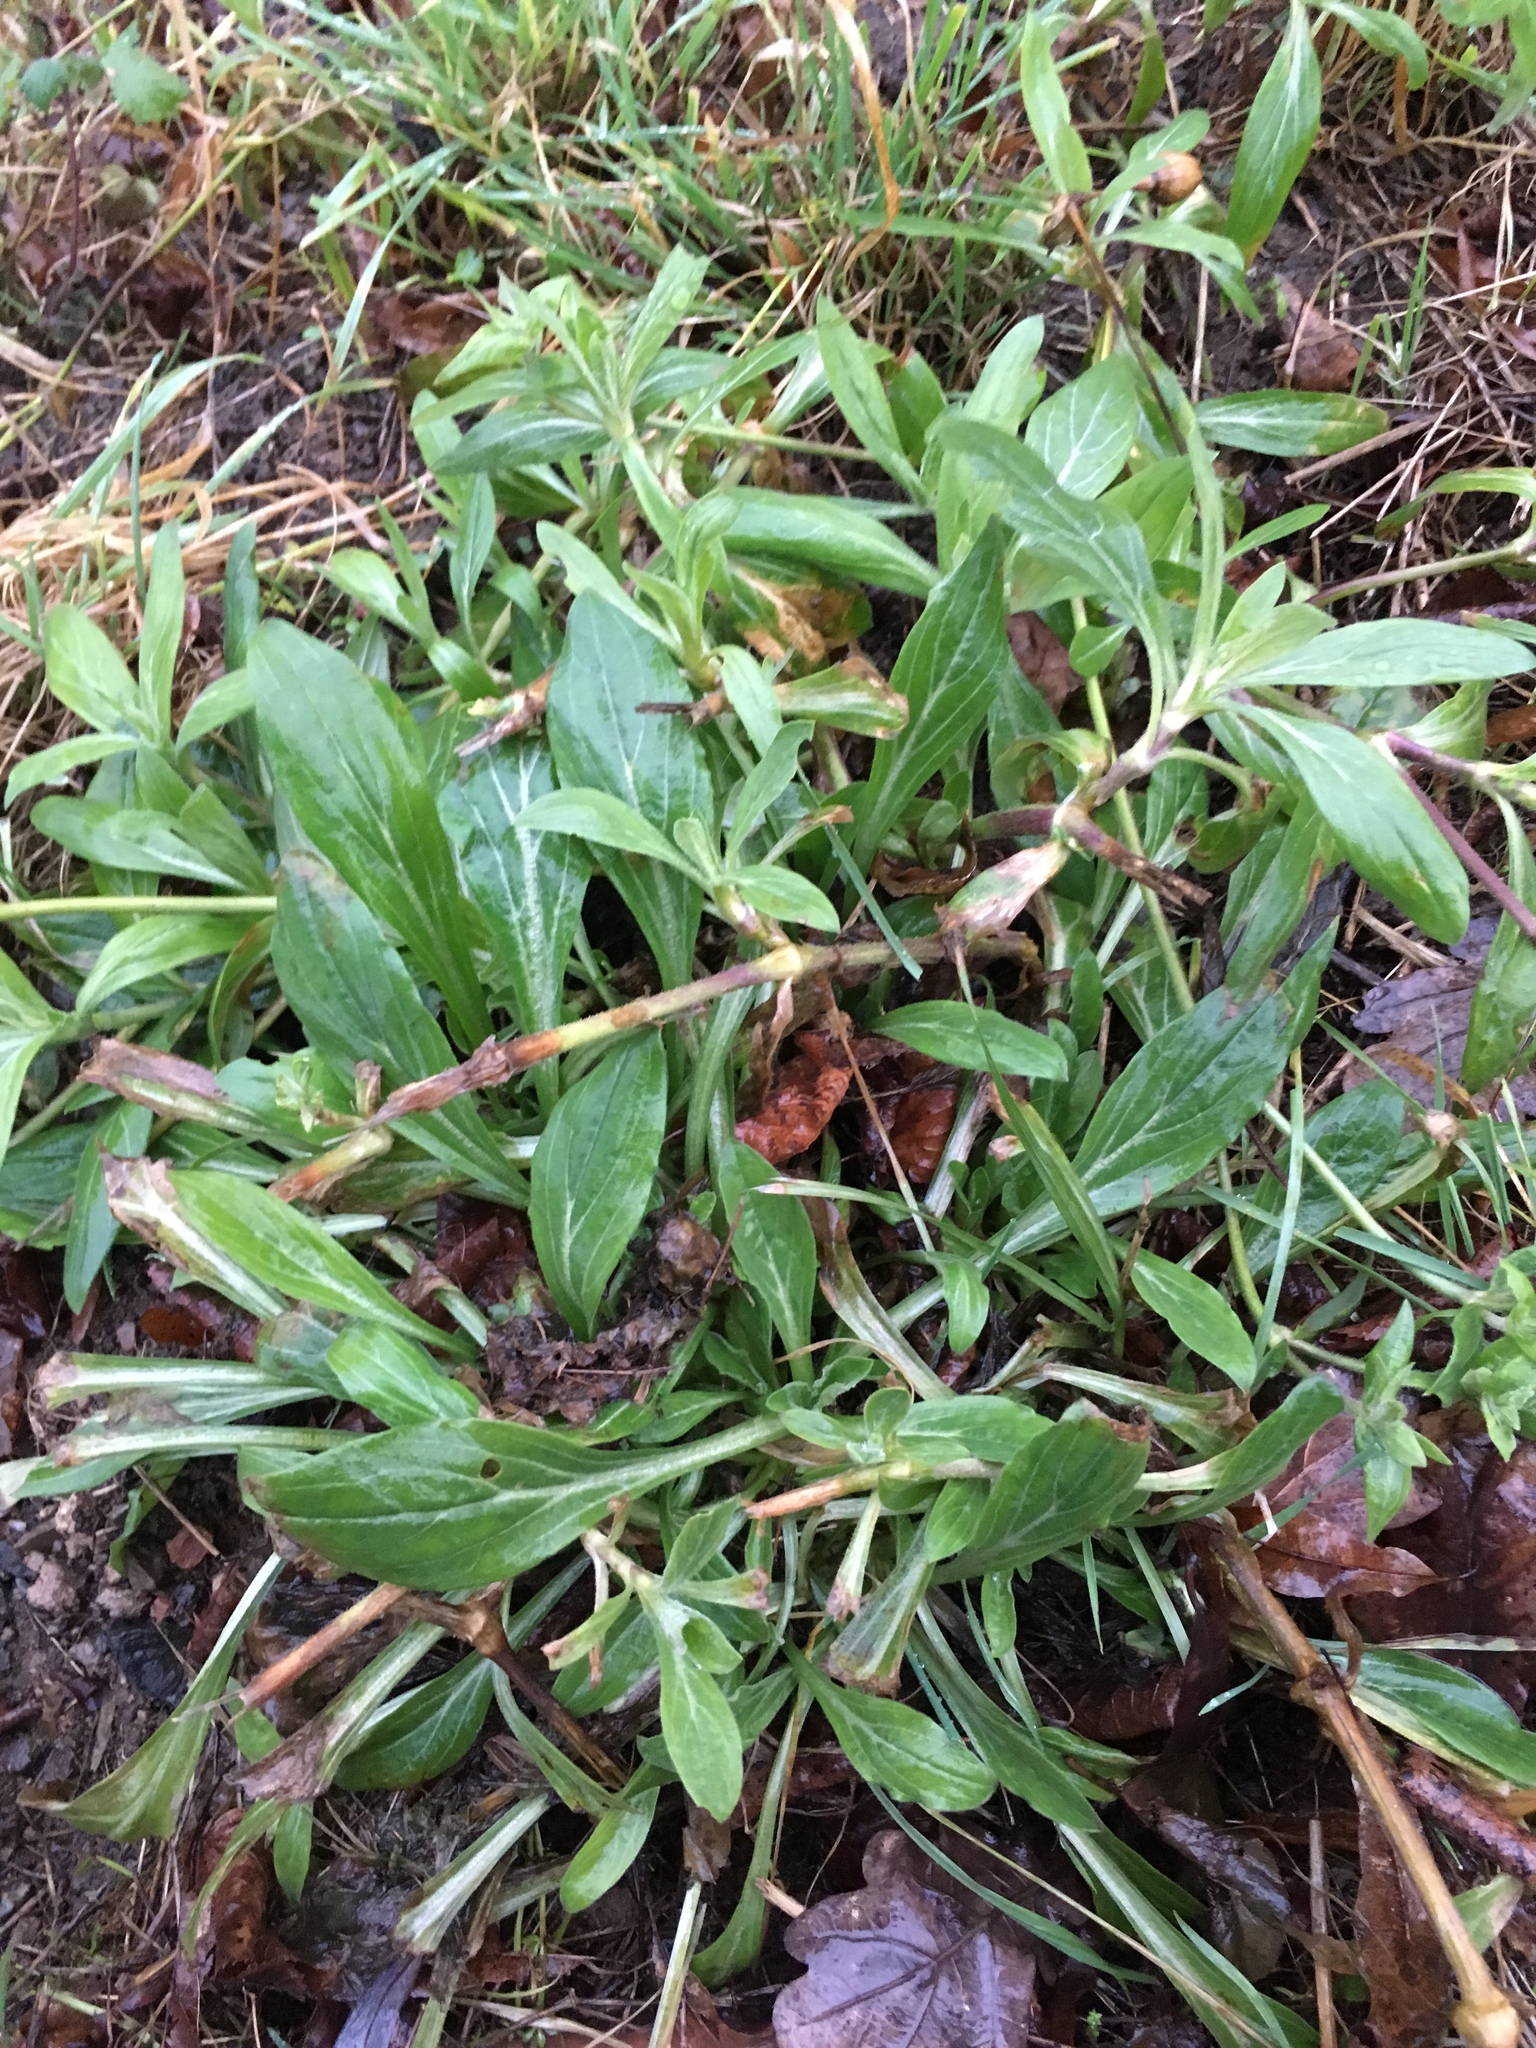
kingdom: Plantae
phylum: Tracheophyta
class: Magnoliopsida
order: Caryophyllales
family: Caryophyllaceae
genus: Silene
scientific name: Silene latifolia
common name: White campion
